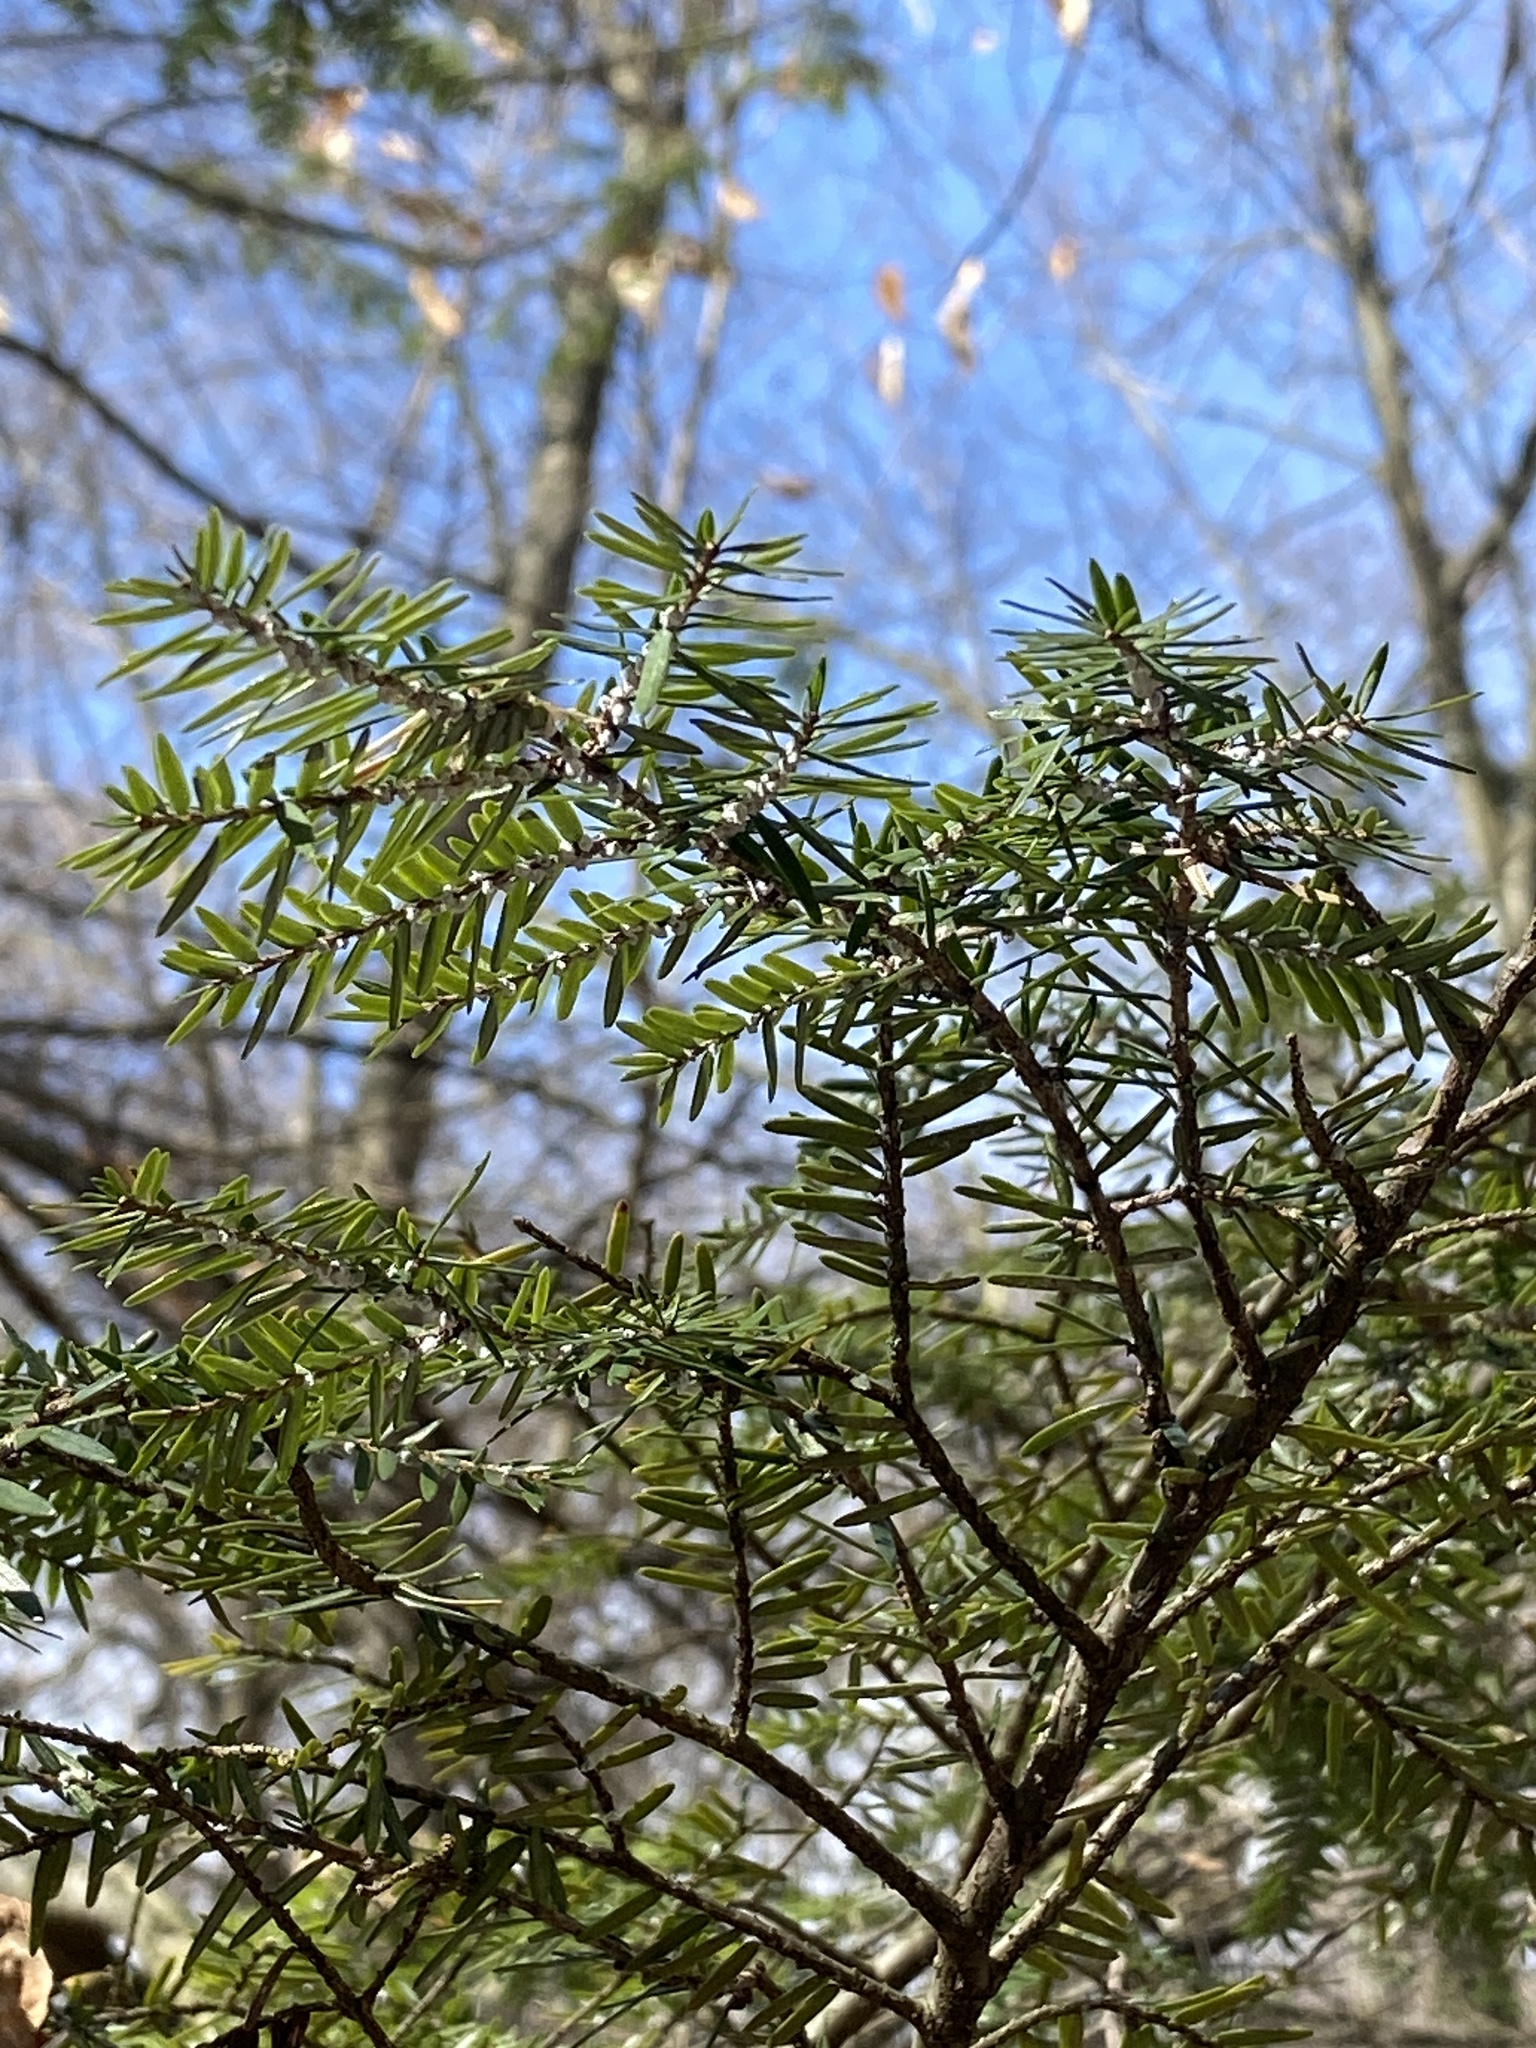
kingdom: Animalia
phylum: Arthropoda
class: Insecta
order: Hemiptera
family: Adelgidae
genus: Adelges
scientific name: Adelges tsugae
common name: Hemlock woolly adelgid
